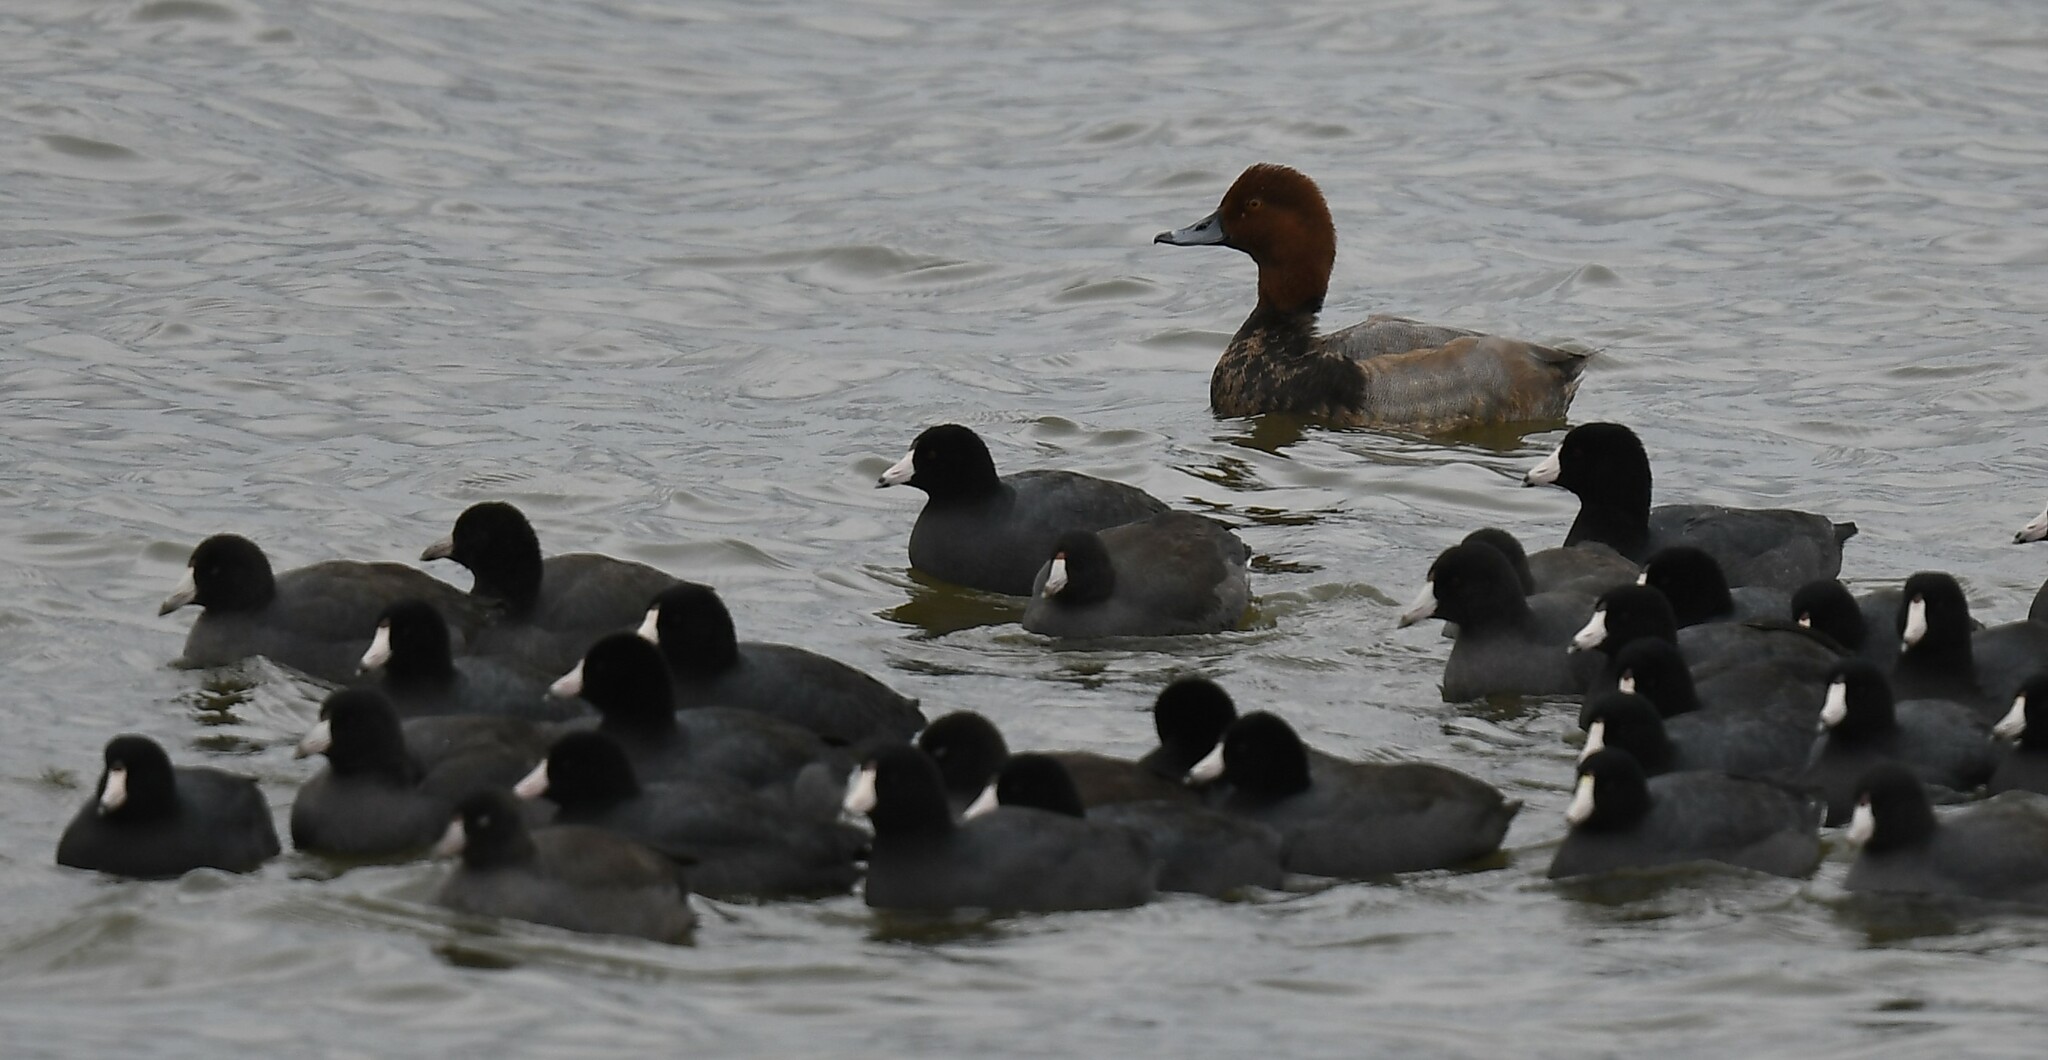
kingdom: Animalia
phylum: Chordata
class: Aves
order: Anseriformes
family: Anatidae
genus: Aythya
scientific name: Aythya americana
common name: Redhead
